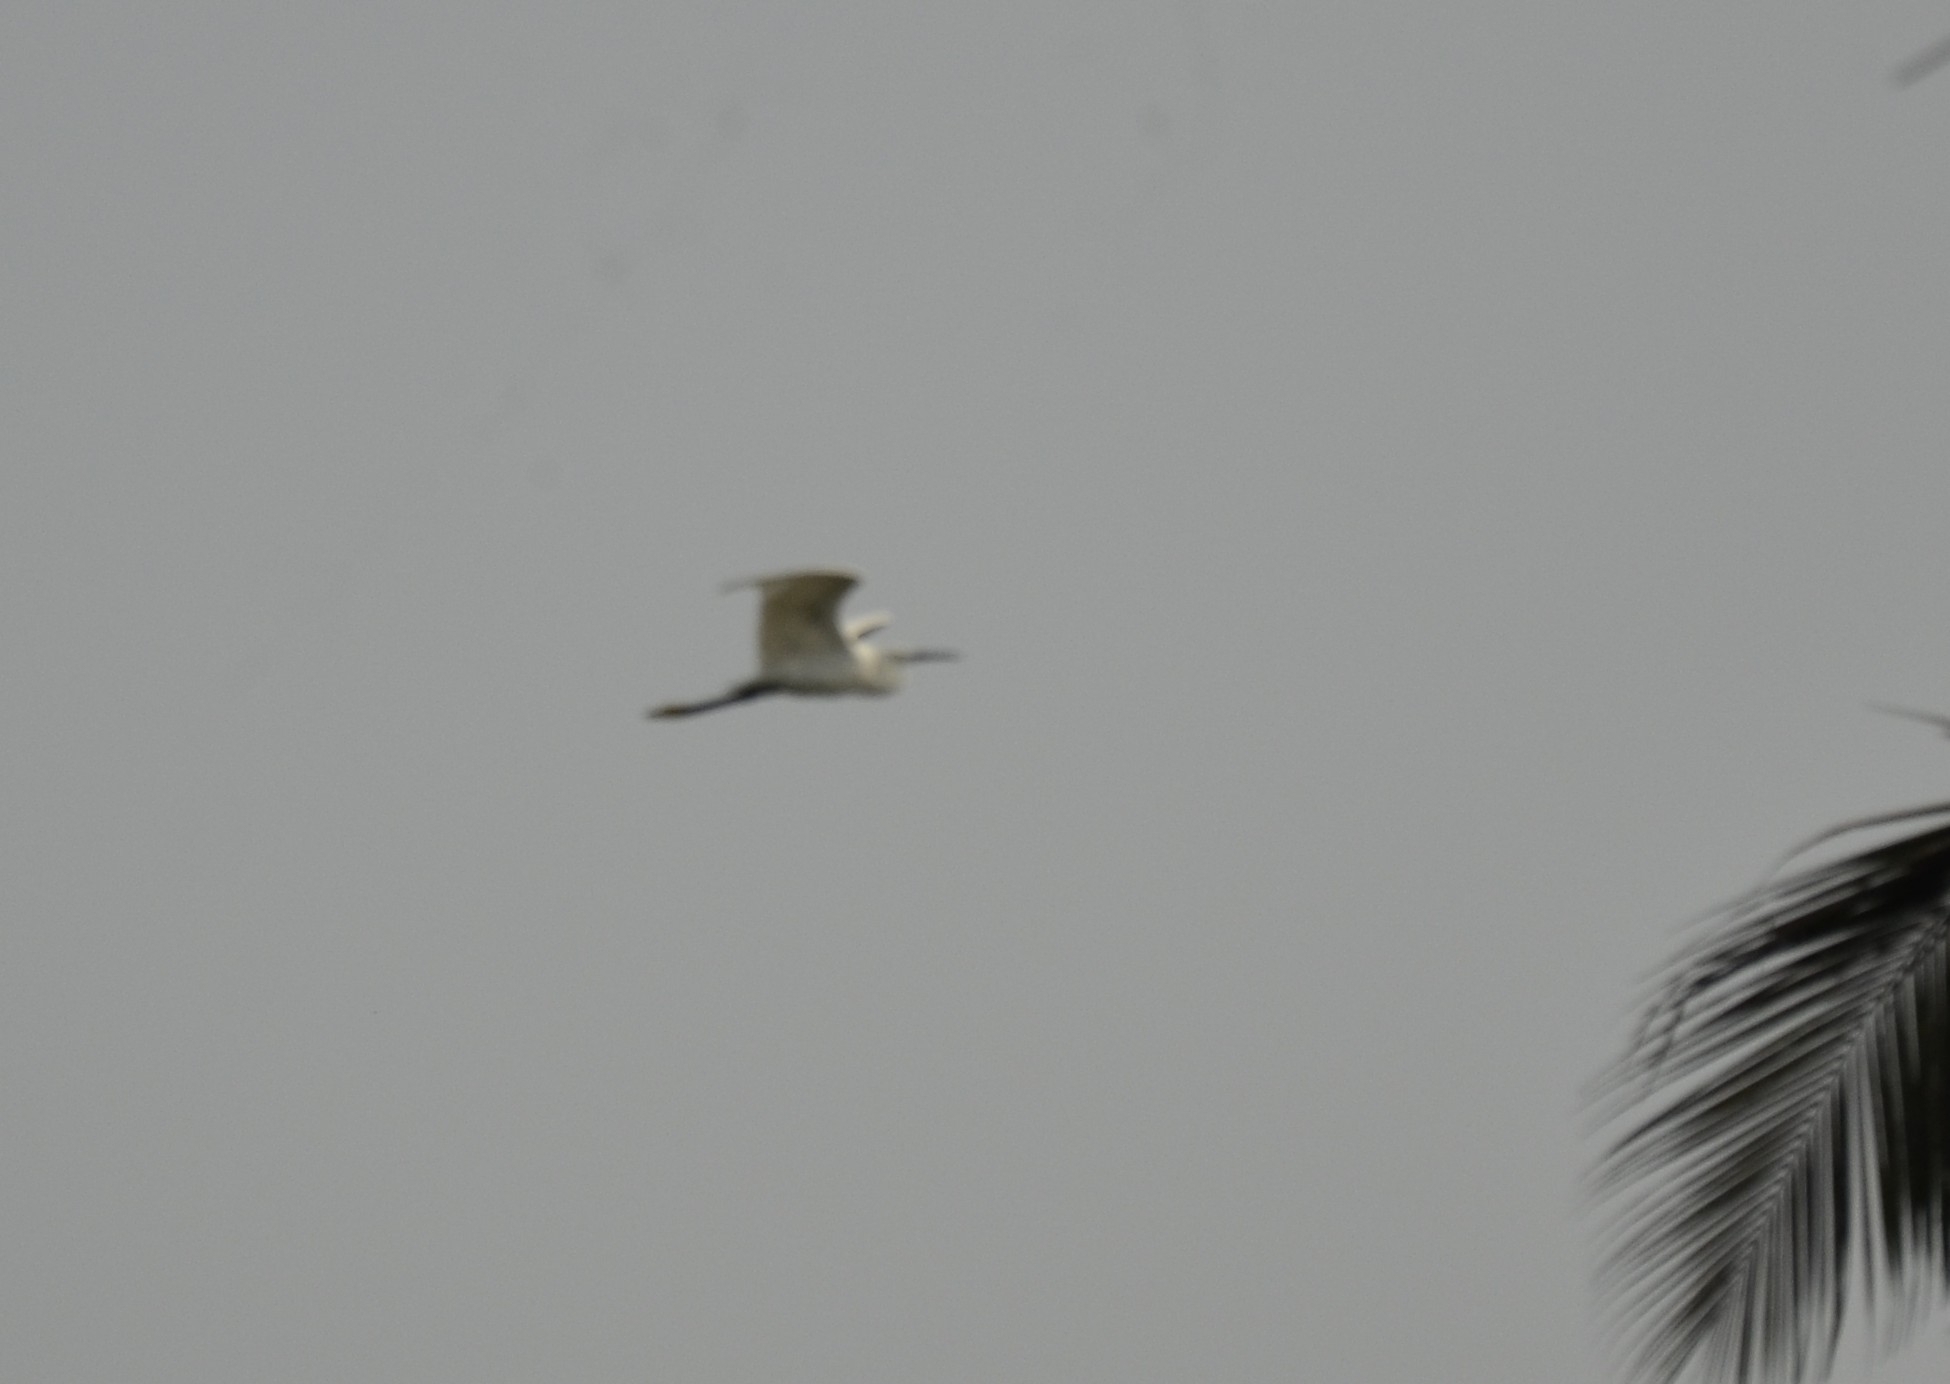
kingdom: Animalia
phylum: Chordata
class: Aves
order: Pelecaniformes
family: Ardeidae
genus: Egretta
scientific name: Egretta garzetta
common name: Little egret
